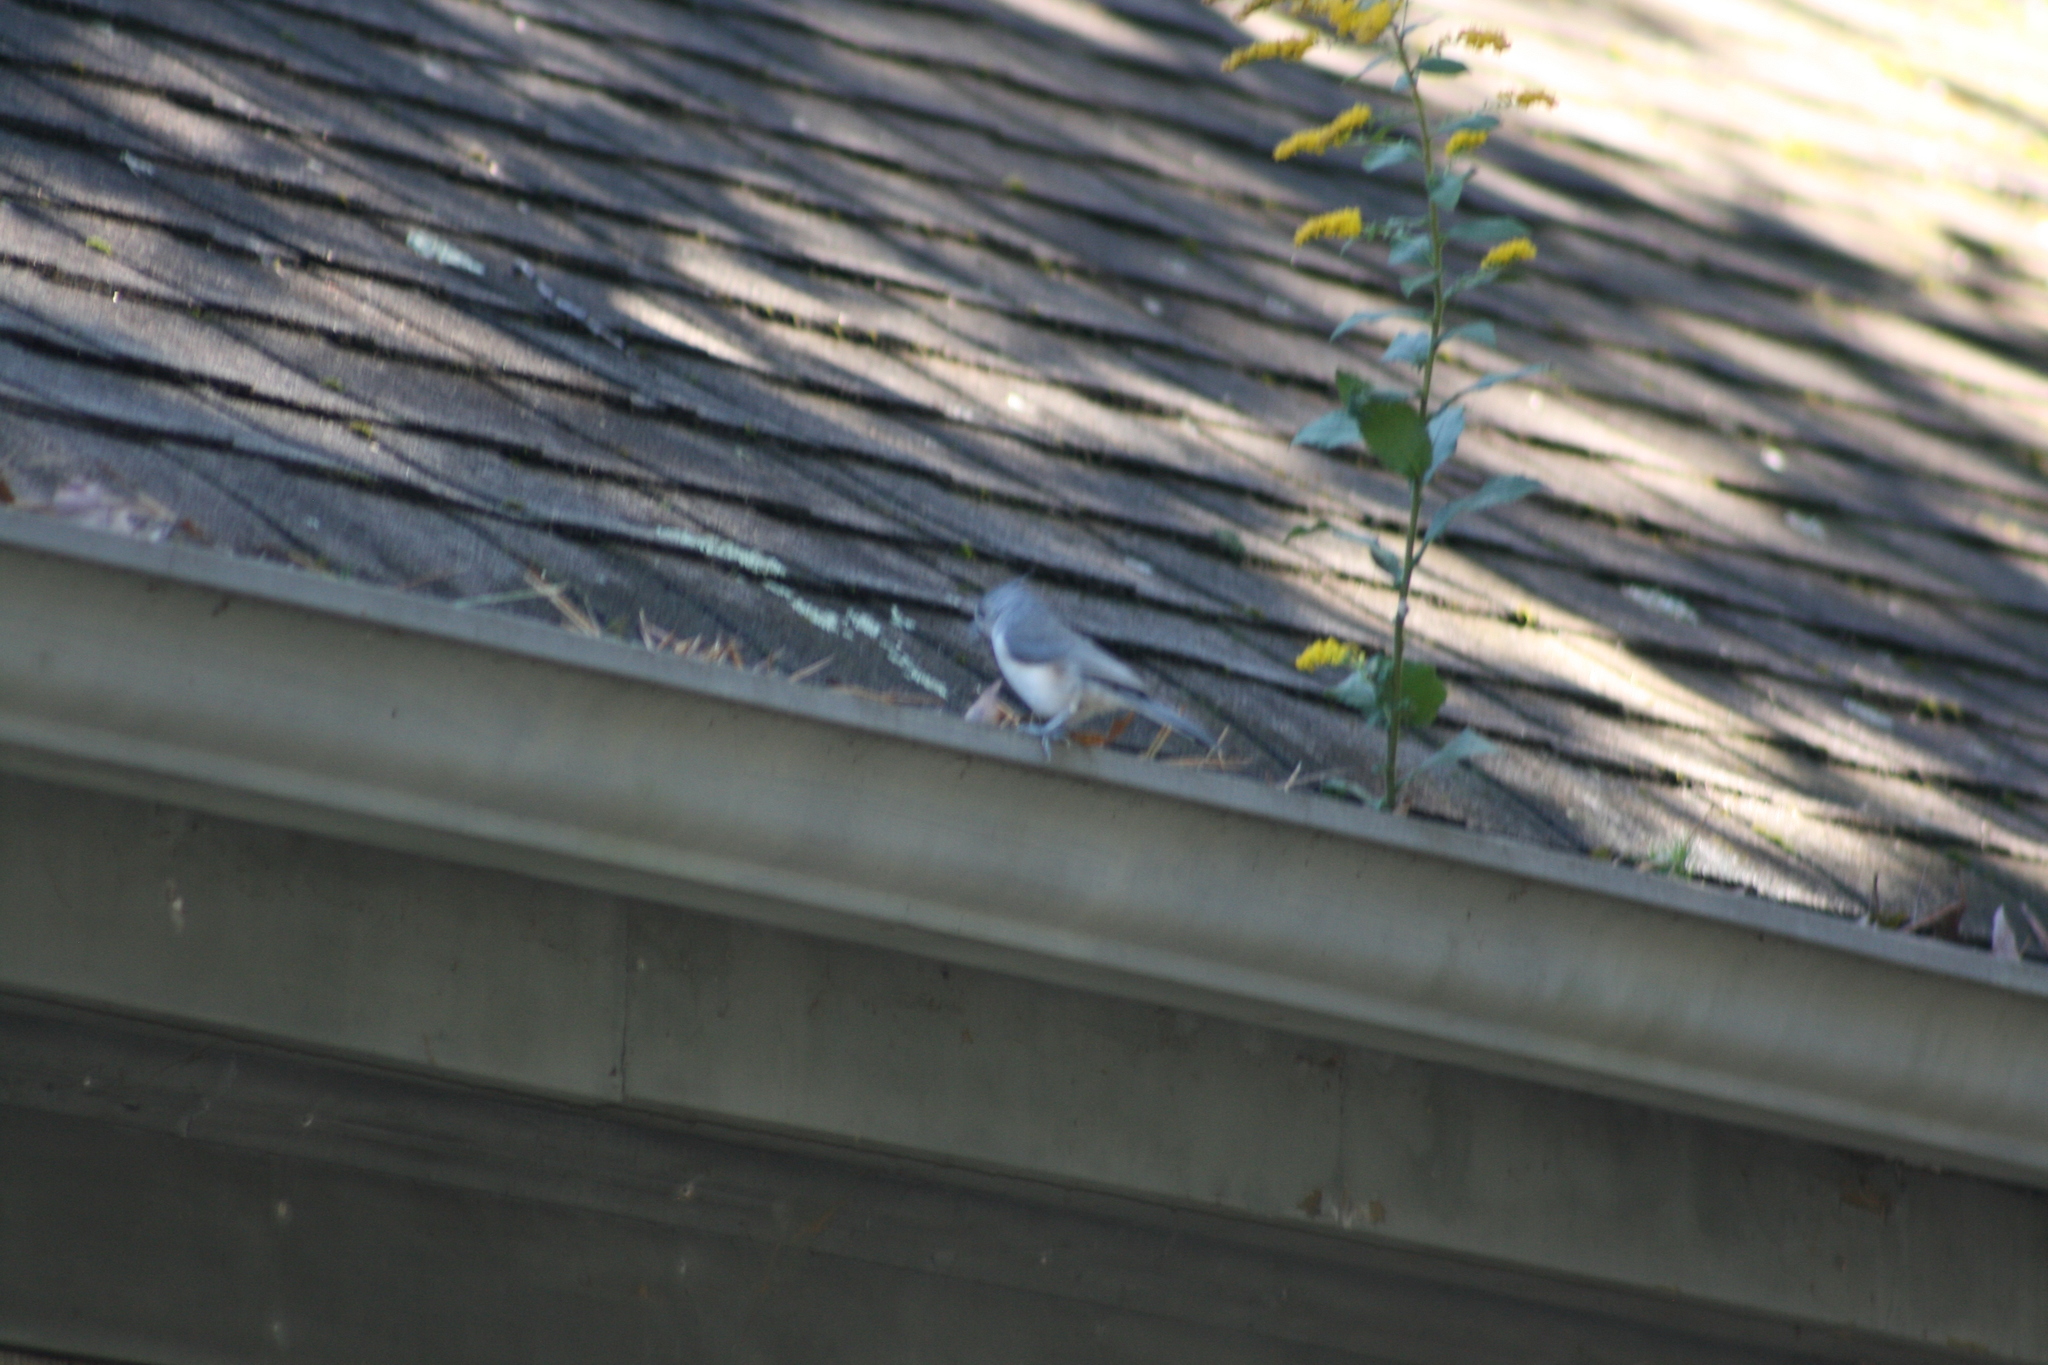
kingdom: Animalia
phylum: Chordata
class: Aves
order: Passeriformes
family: Paridae
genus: Baeolophus
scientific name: Baeolophus bicolor
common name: Tufted titmouse
